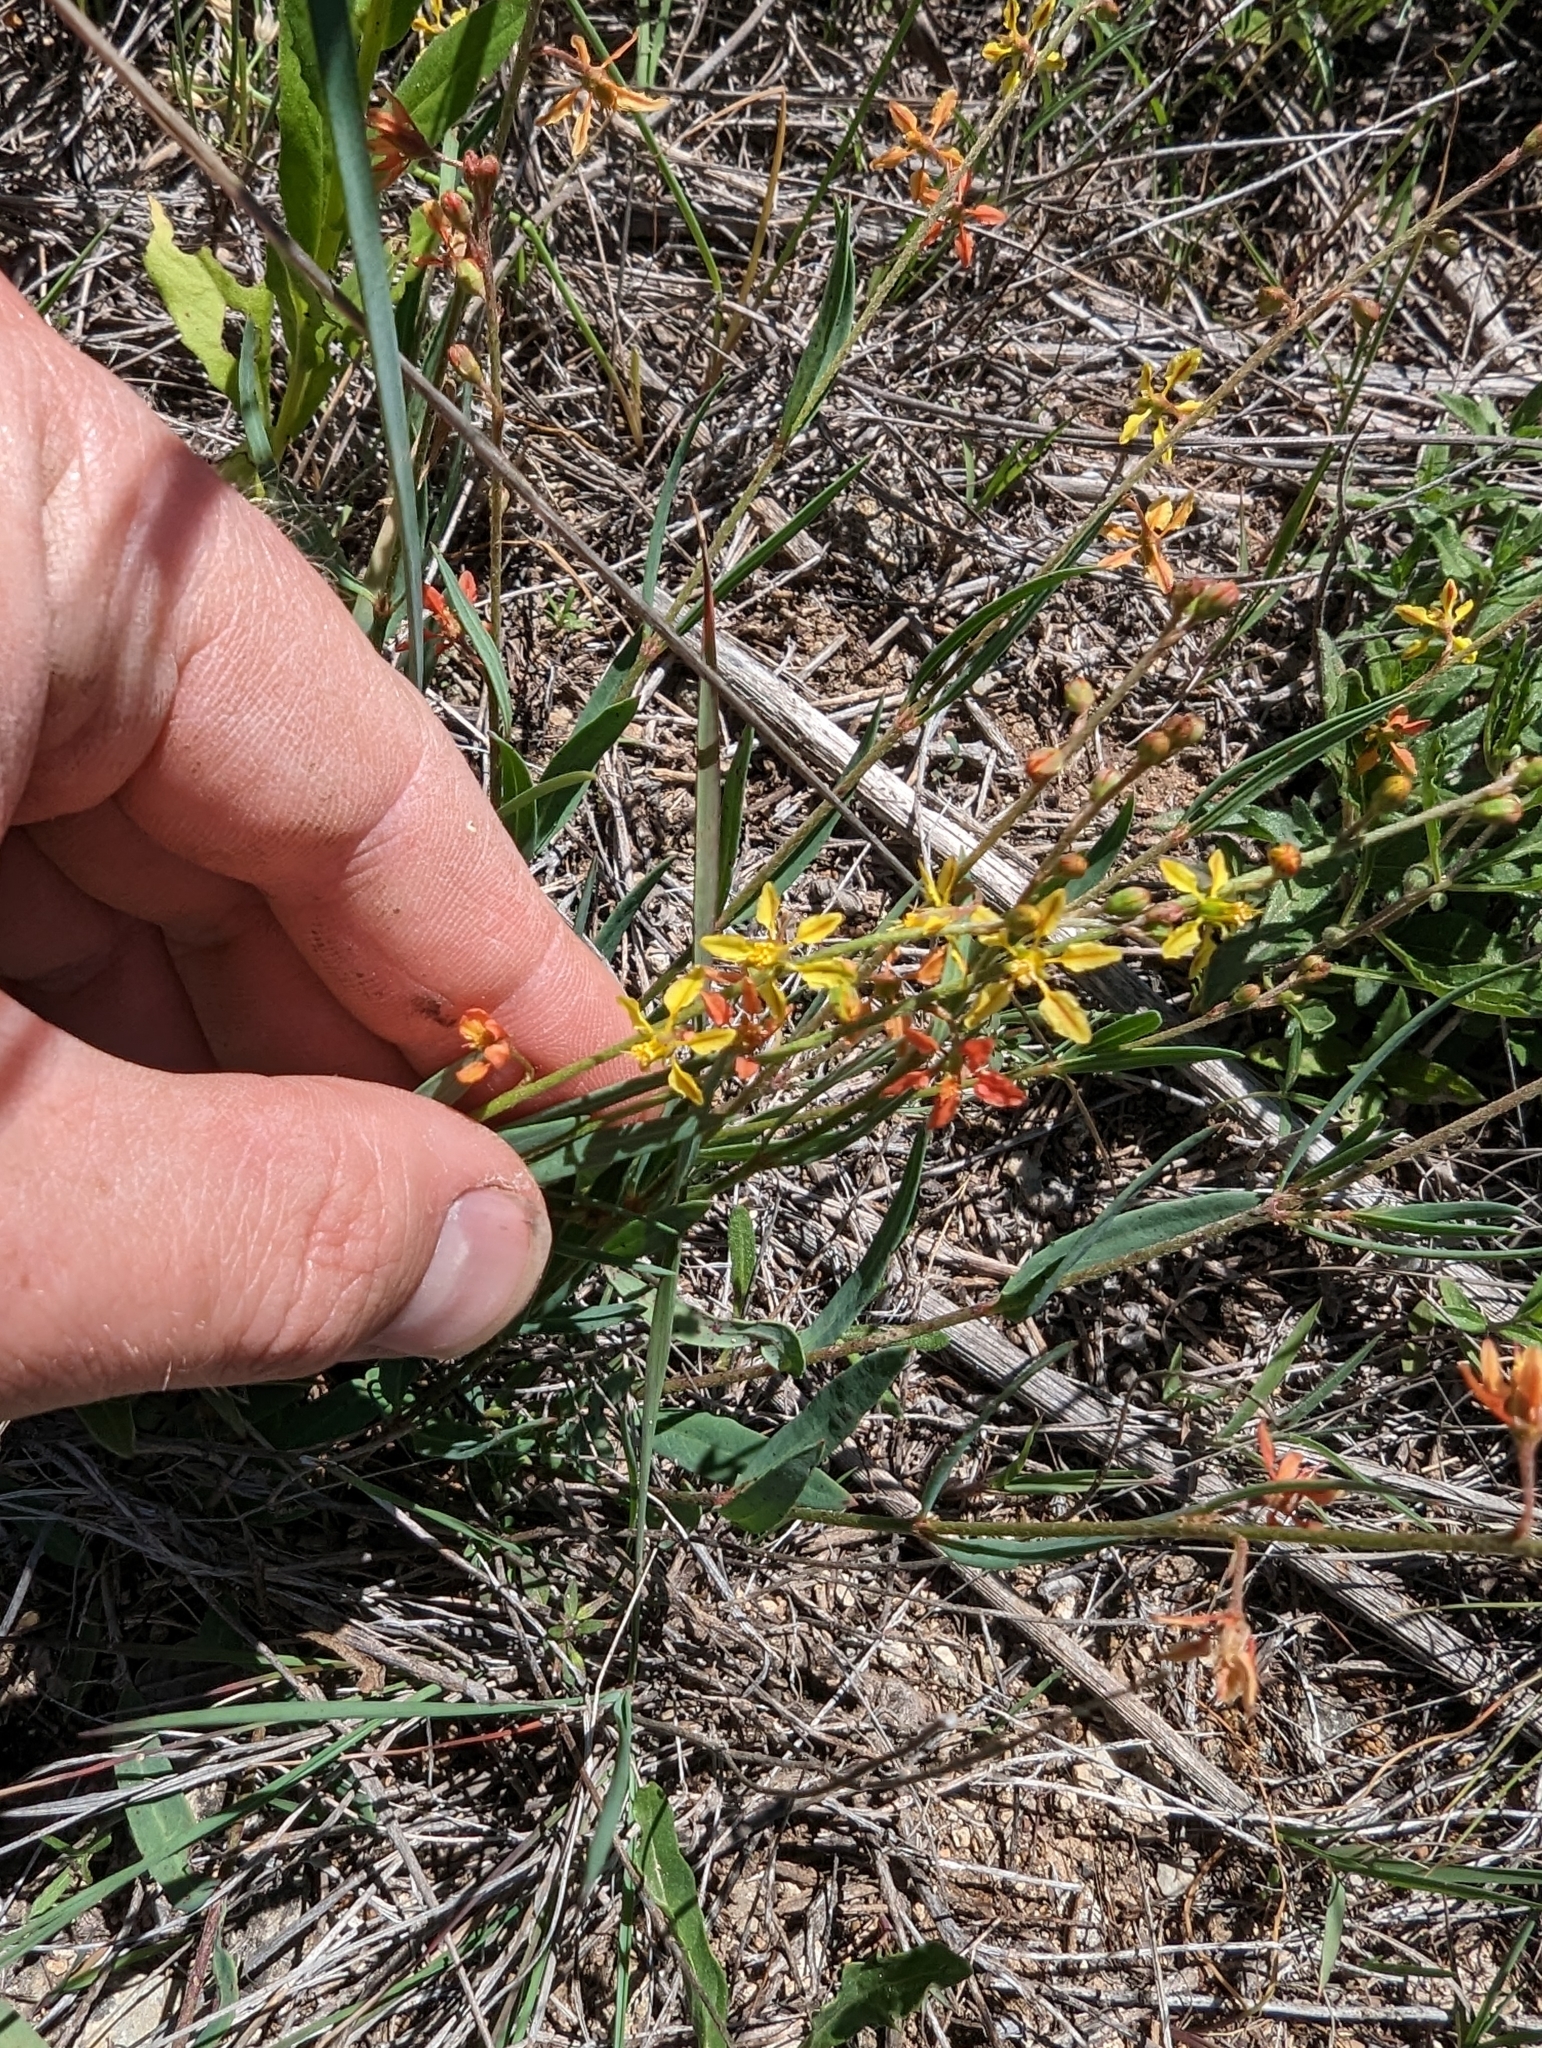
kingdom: Plantae
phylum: Tracheophyta
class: Magnoliopsida
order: Malpighiales
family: Malpighiaceae
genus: Galphimia
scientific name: Galphimia angustifolia
